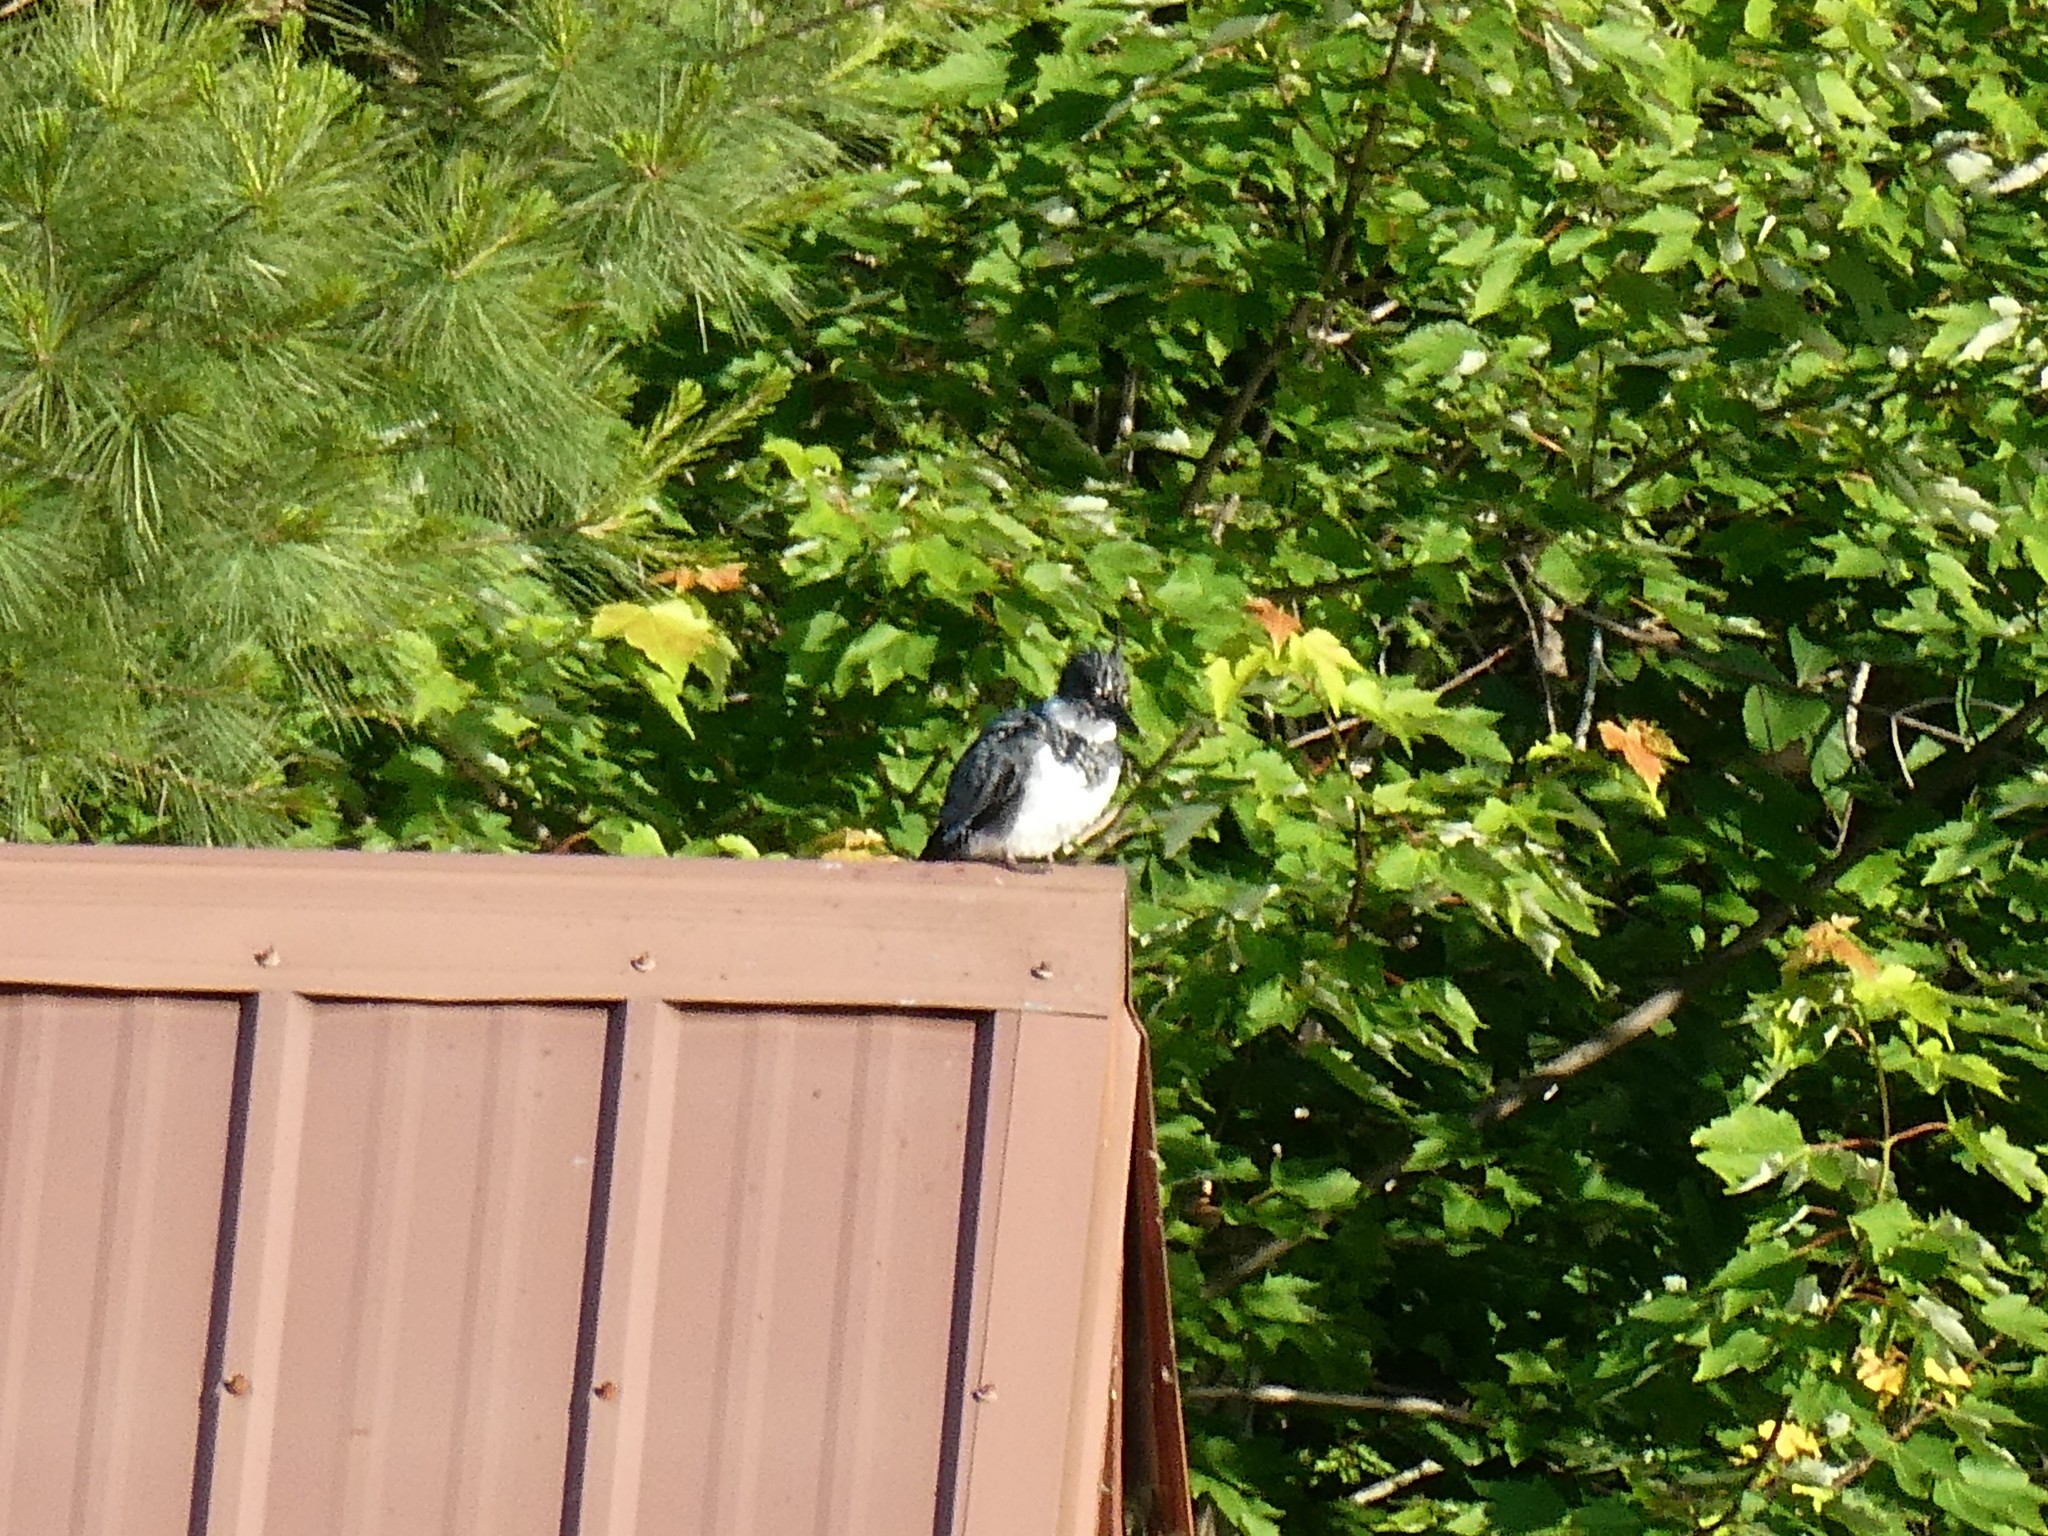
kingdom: Animalia
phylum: Chordata
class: Aves
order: Coraciiformes
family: Alcedinidae
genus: Megaceryle
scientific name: Megaceryle alcyon
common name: Belted kingfisher
